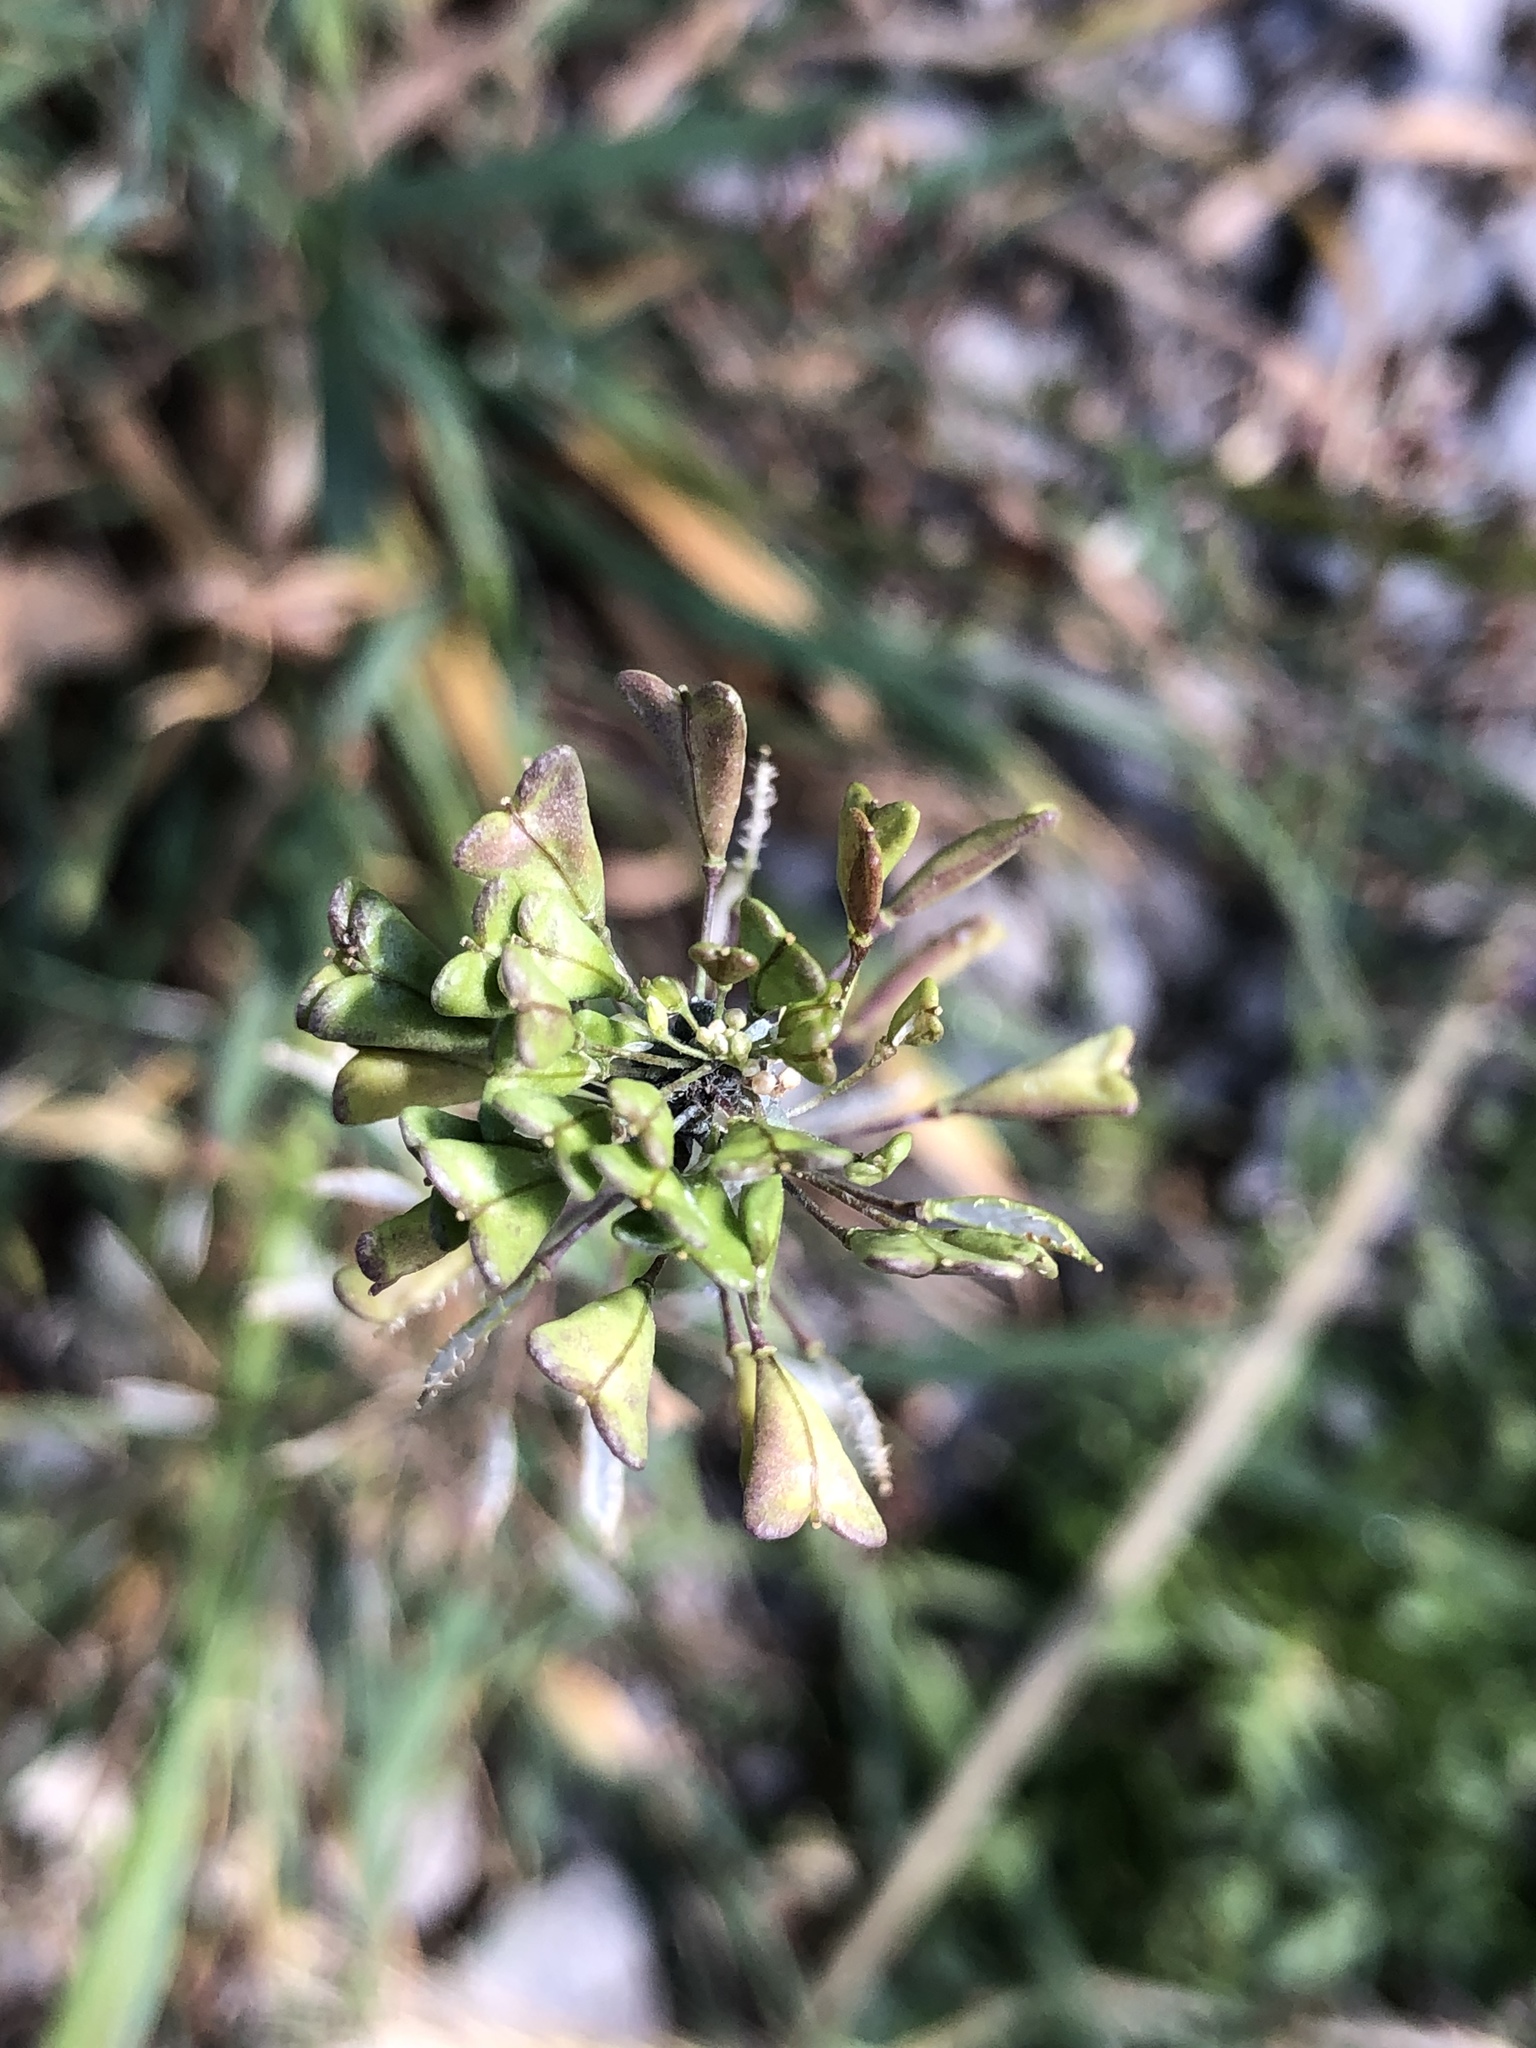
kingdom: Plantae
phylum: Tracheophyta
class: Magnoliopsida
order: Brassicales
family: Brassicaceae
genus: Capsella
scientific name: Capsella bursa-pastoris
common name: Shepherd's purse
